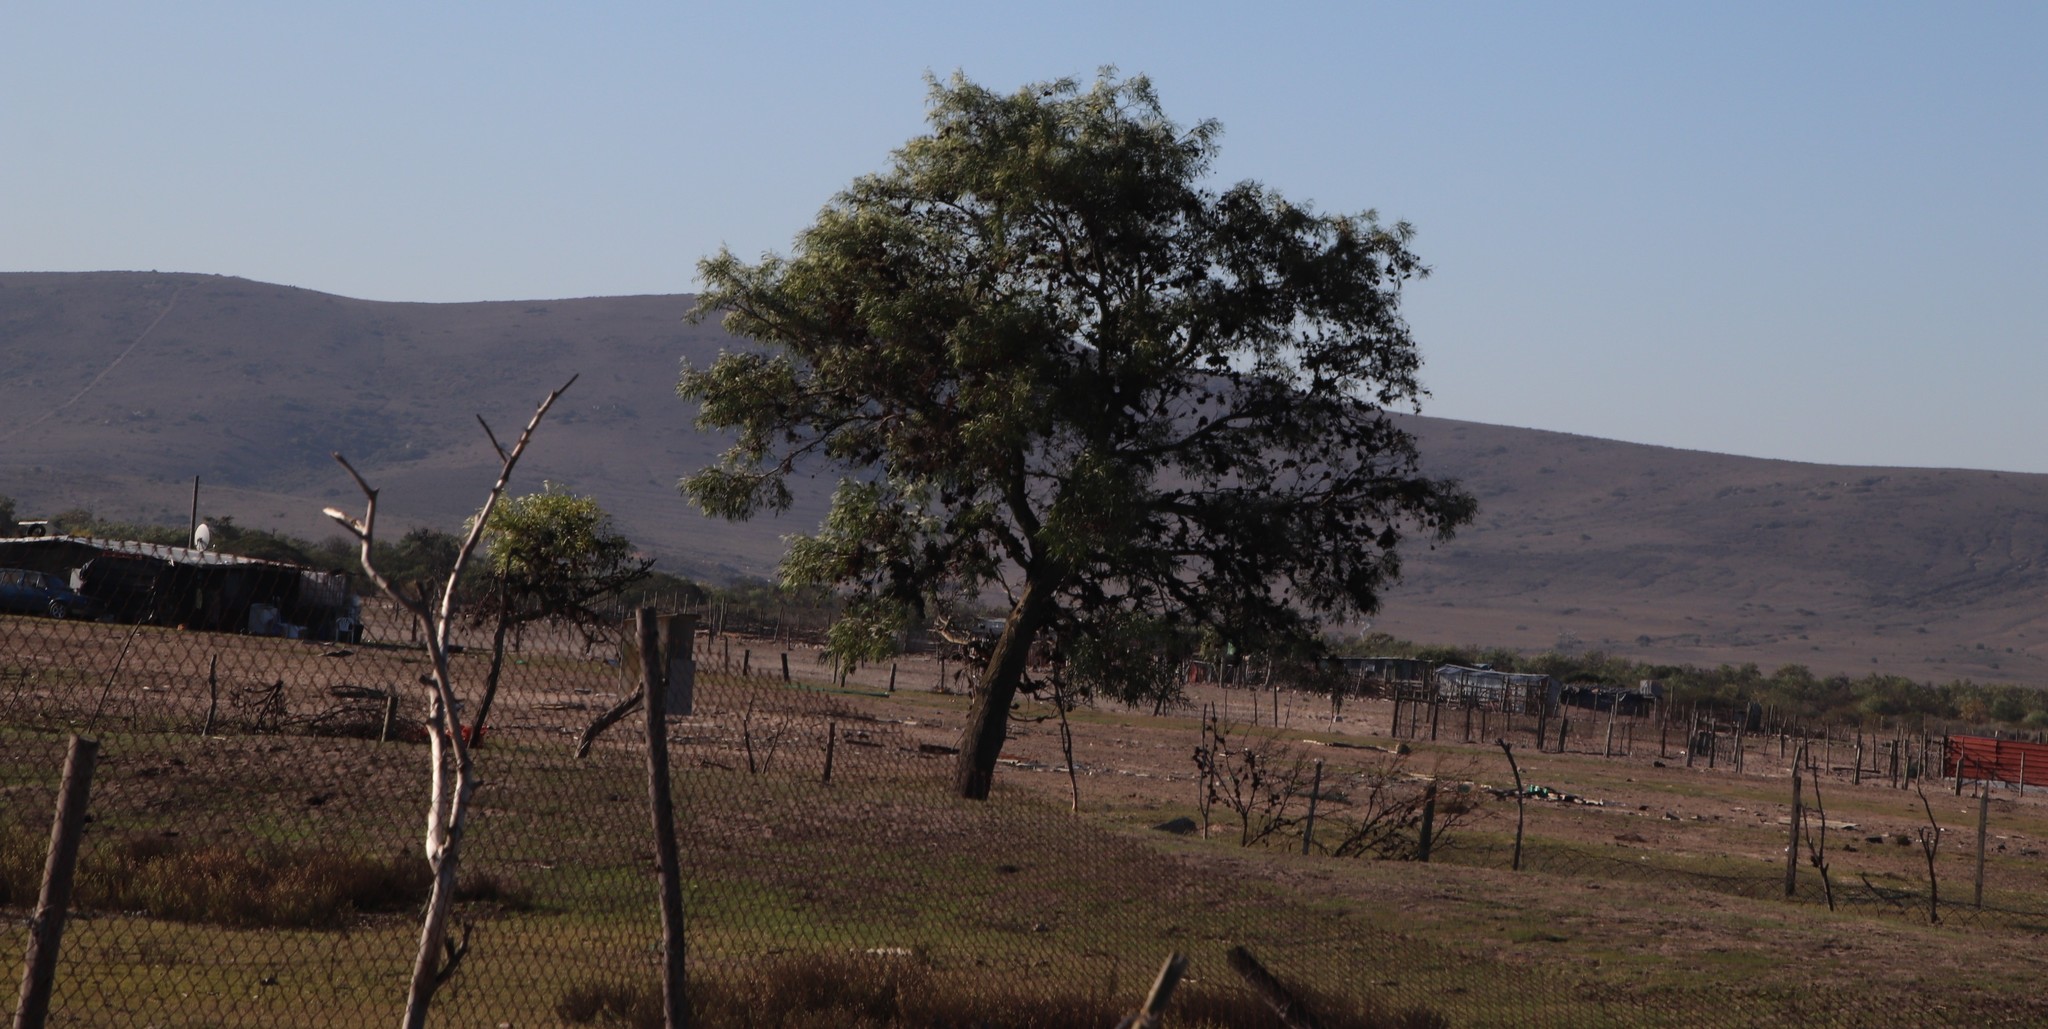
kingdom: Plantae
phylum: Tracheophyta
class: Magnoliopsida
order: Fabales
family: Fabaceae
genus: Acacia
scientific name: Acacia saligna
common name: Orange wattle
